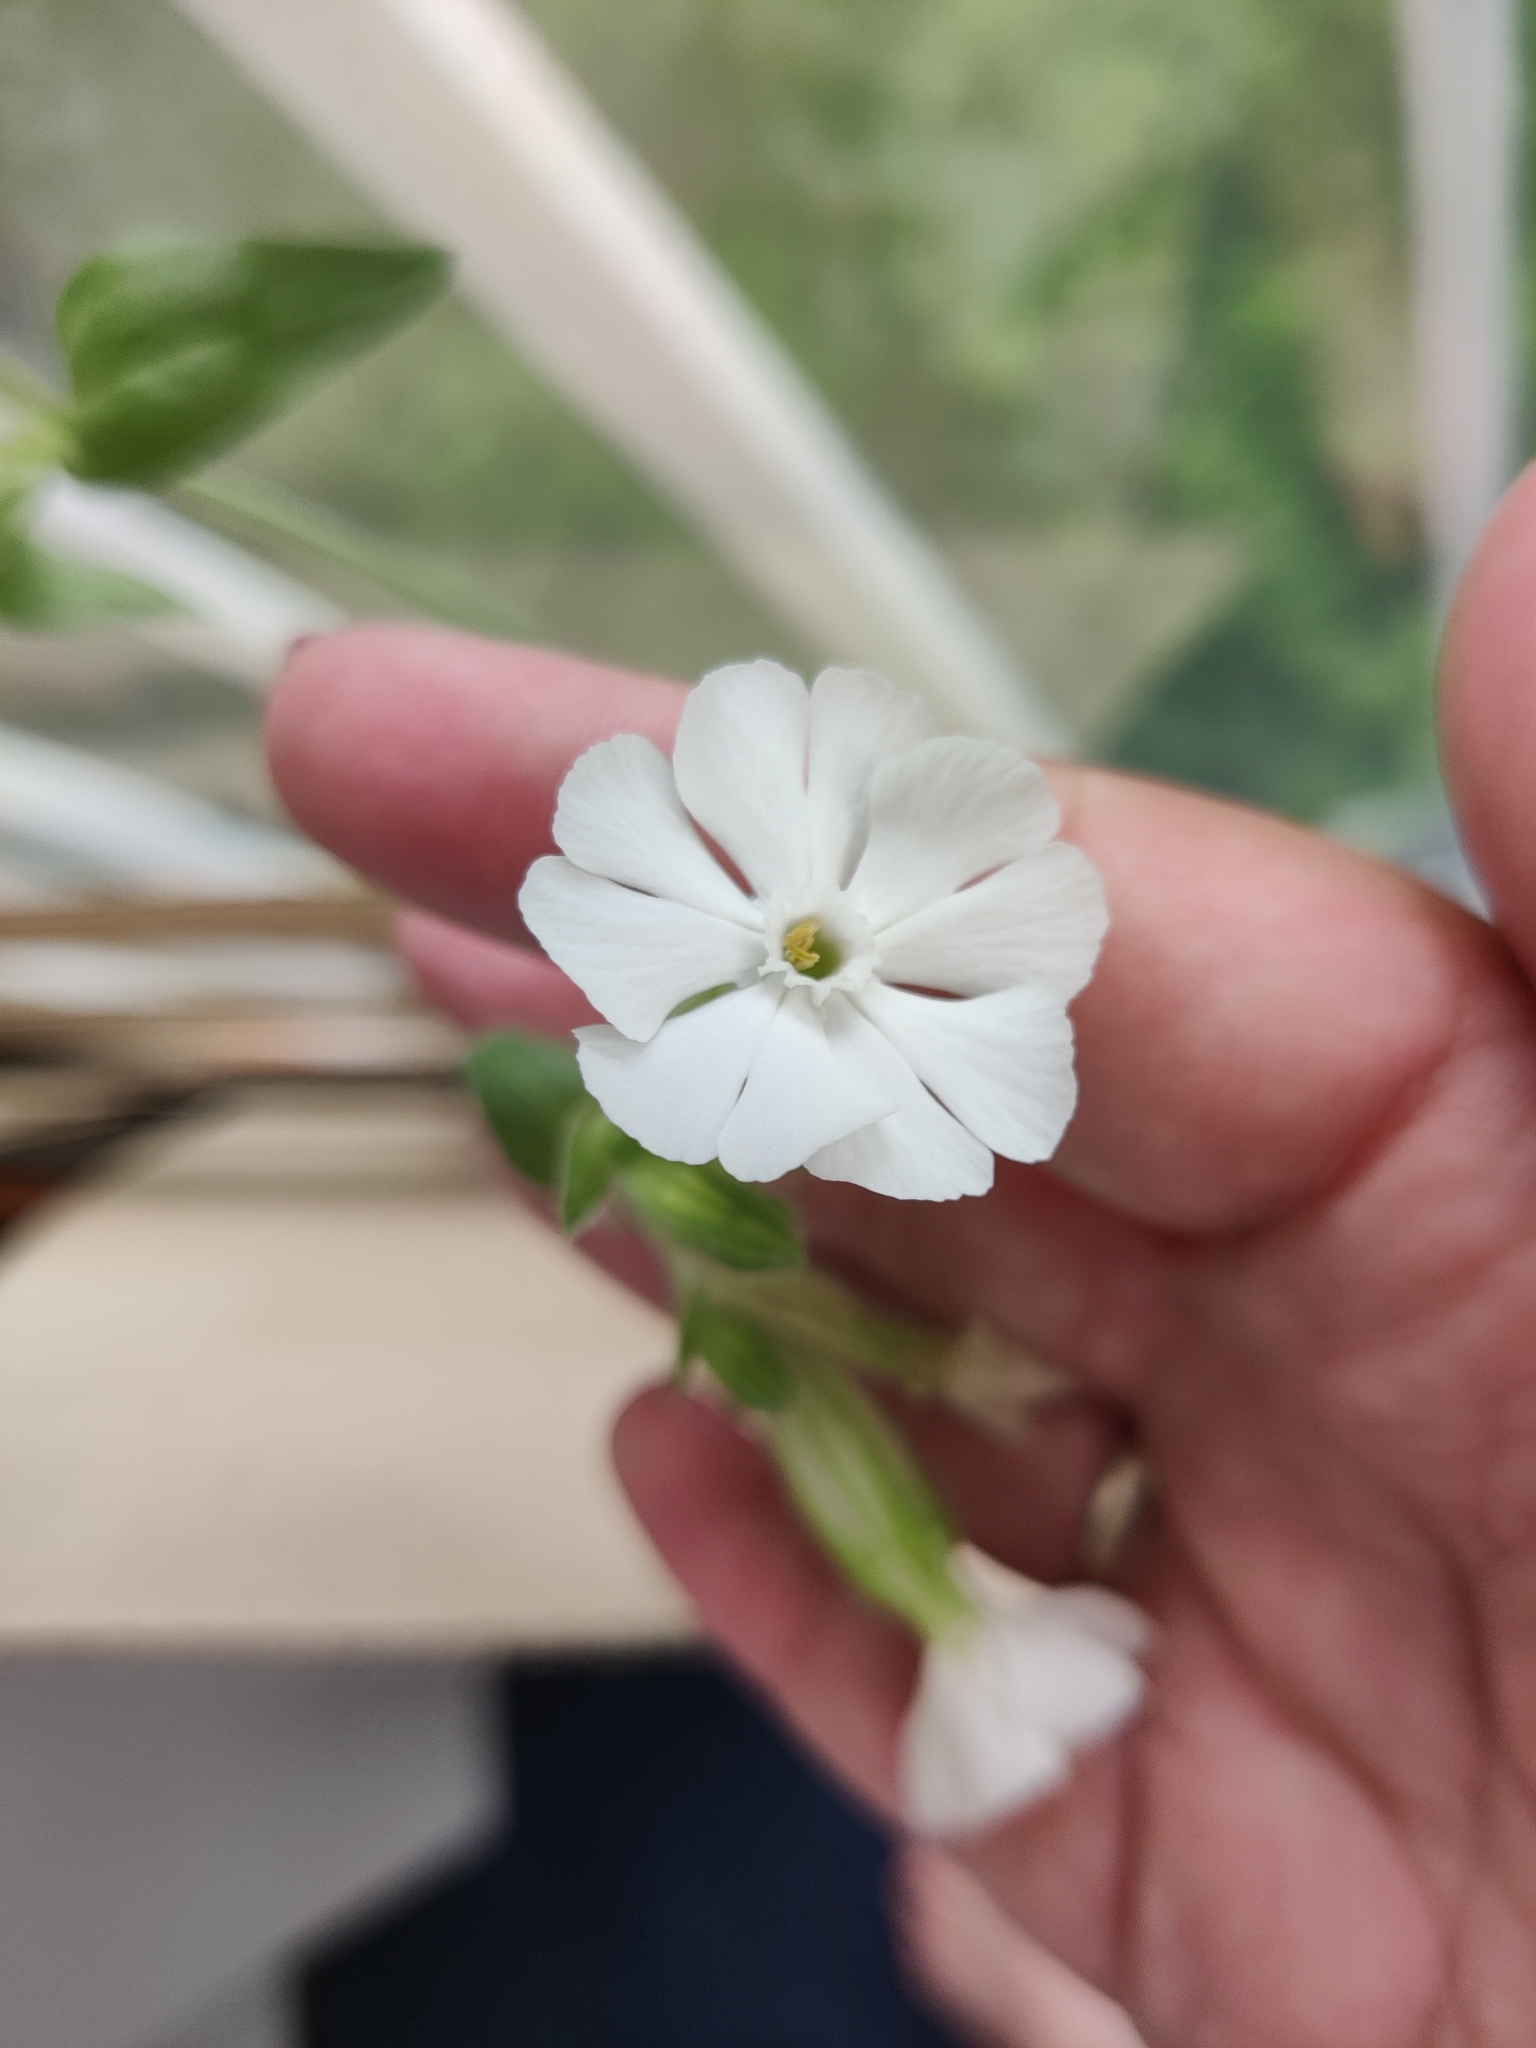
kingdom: Plantae
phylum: Tracheophyta
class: Magnoliopsida
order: Caryophyllales
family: Caryophyllaceae
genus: Silene
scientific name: Silene latifolia
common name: White campion
